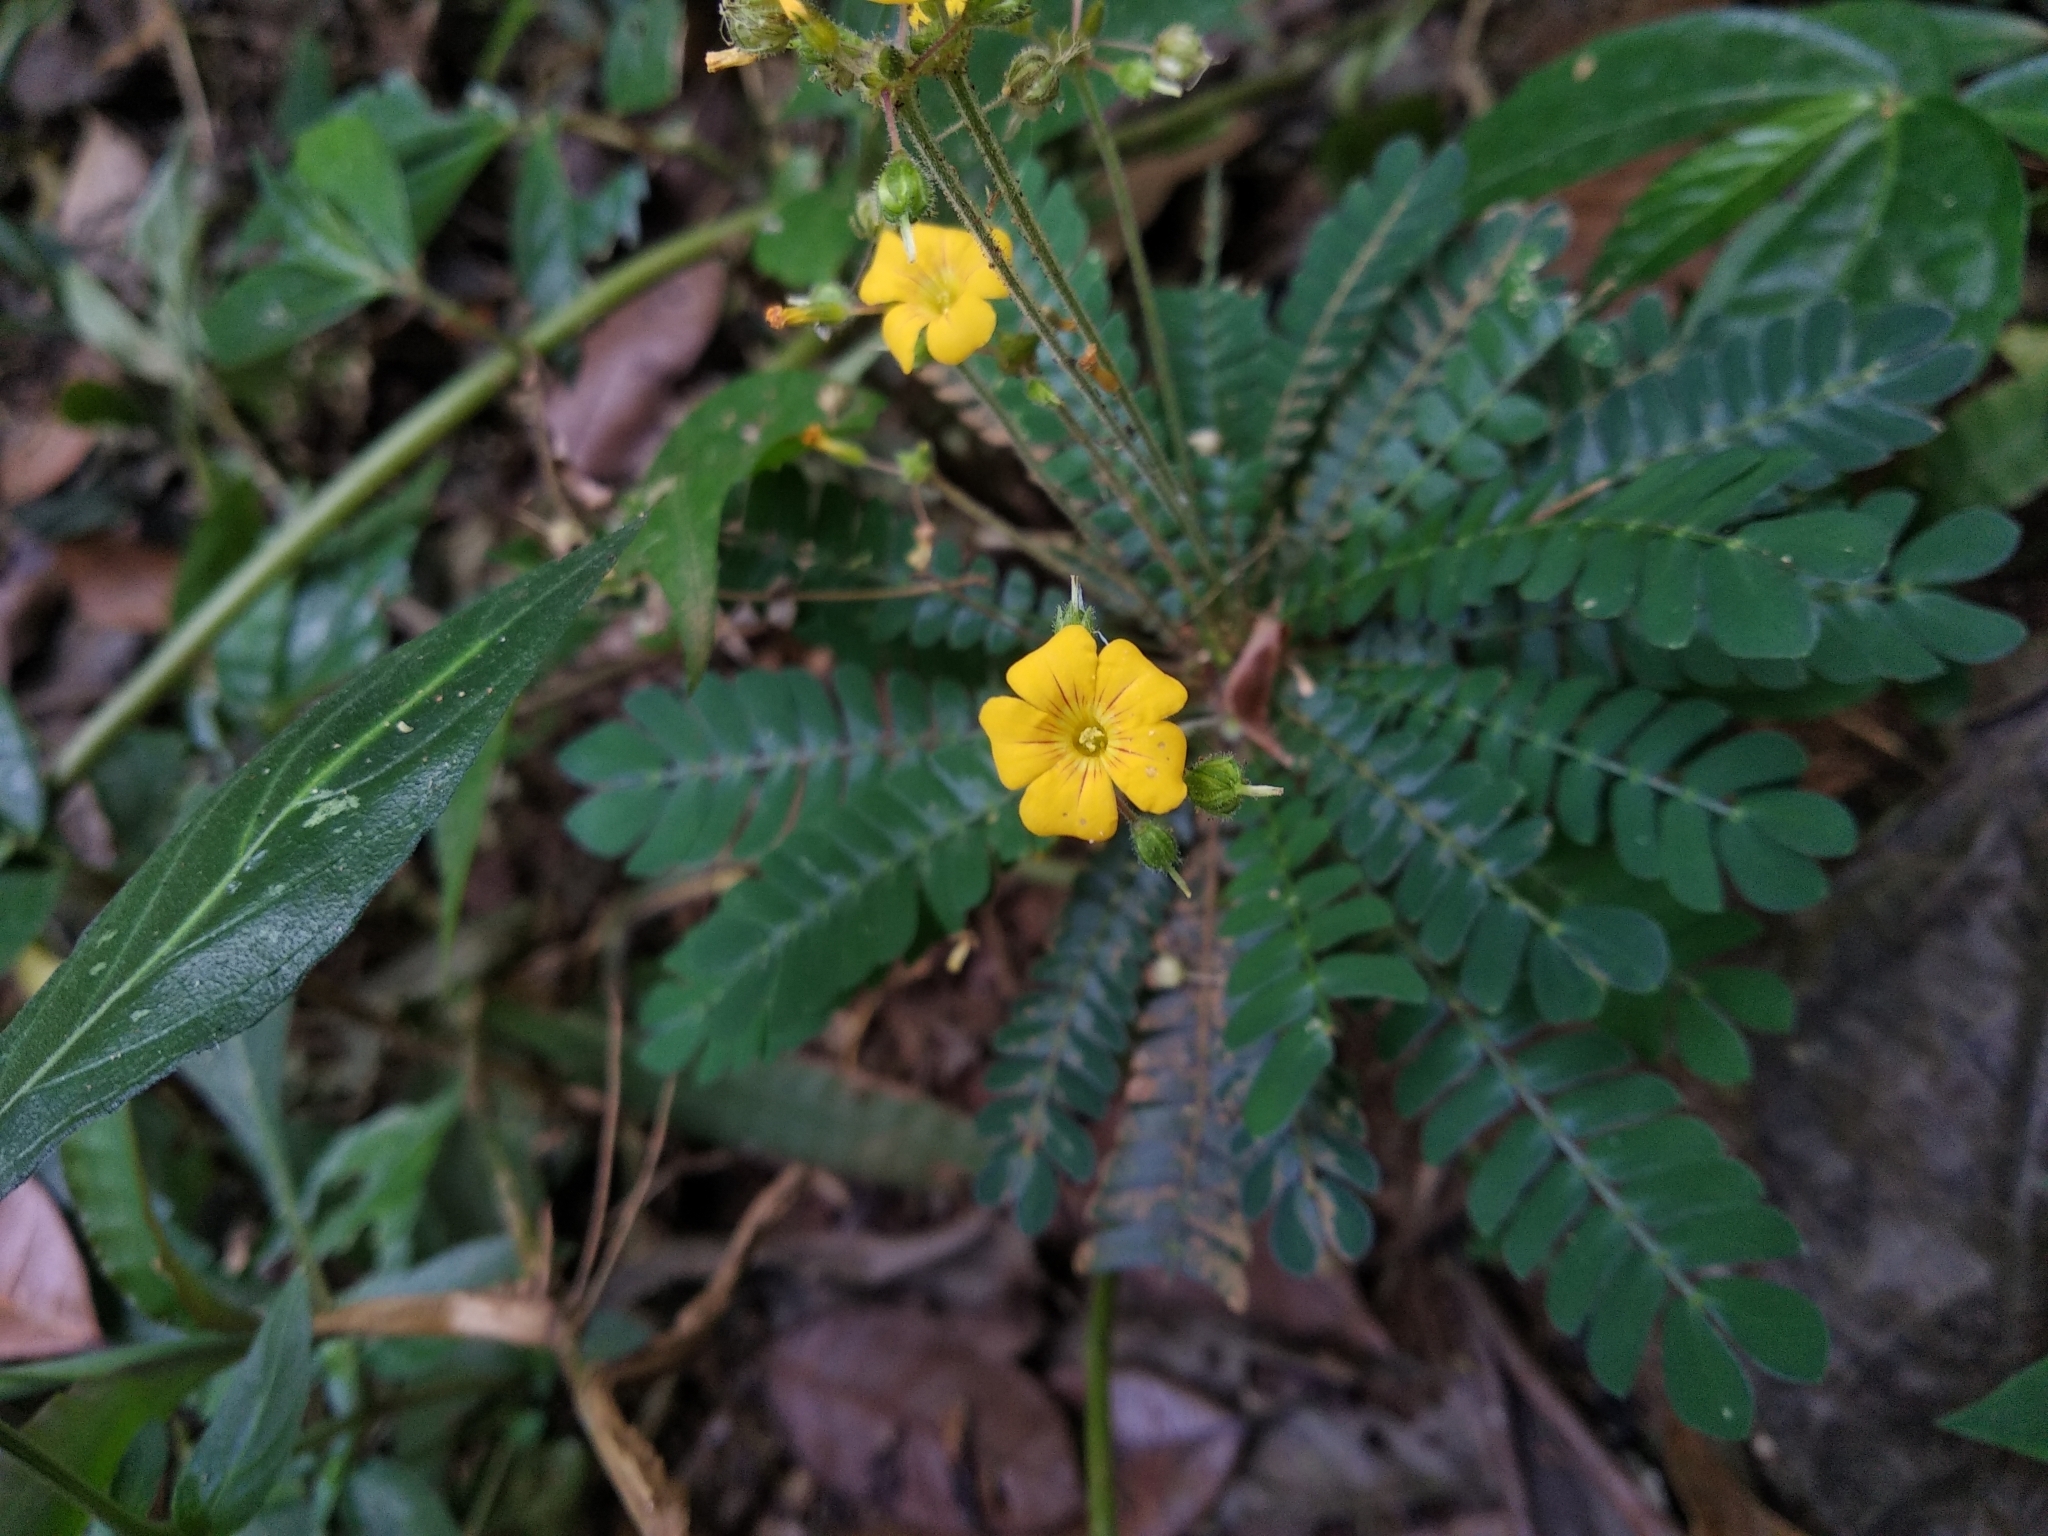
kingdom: Plantae
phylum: Tracheophyta
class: Magnoliopsida
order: Oxalidales
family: Oxalidaceae
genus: Biophytum
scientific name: Biophytum sensitivum
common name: Lifeplant
